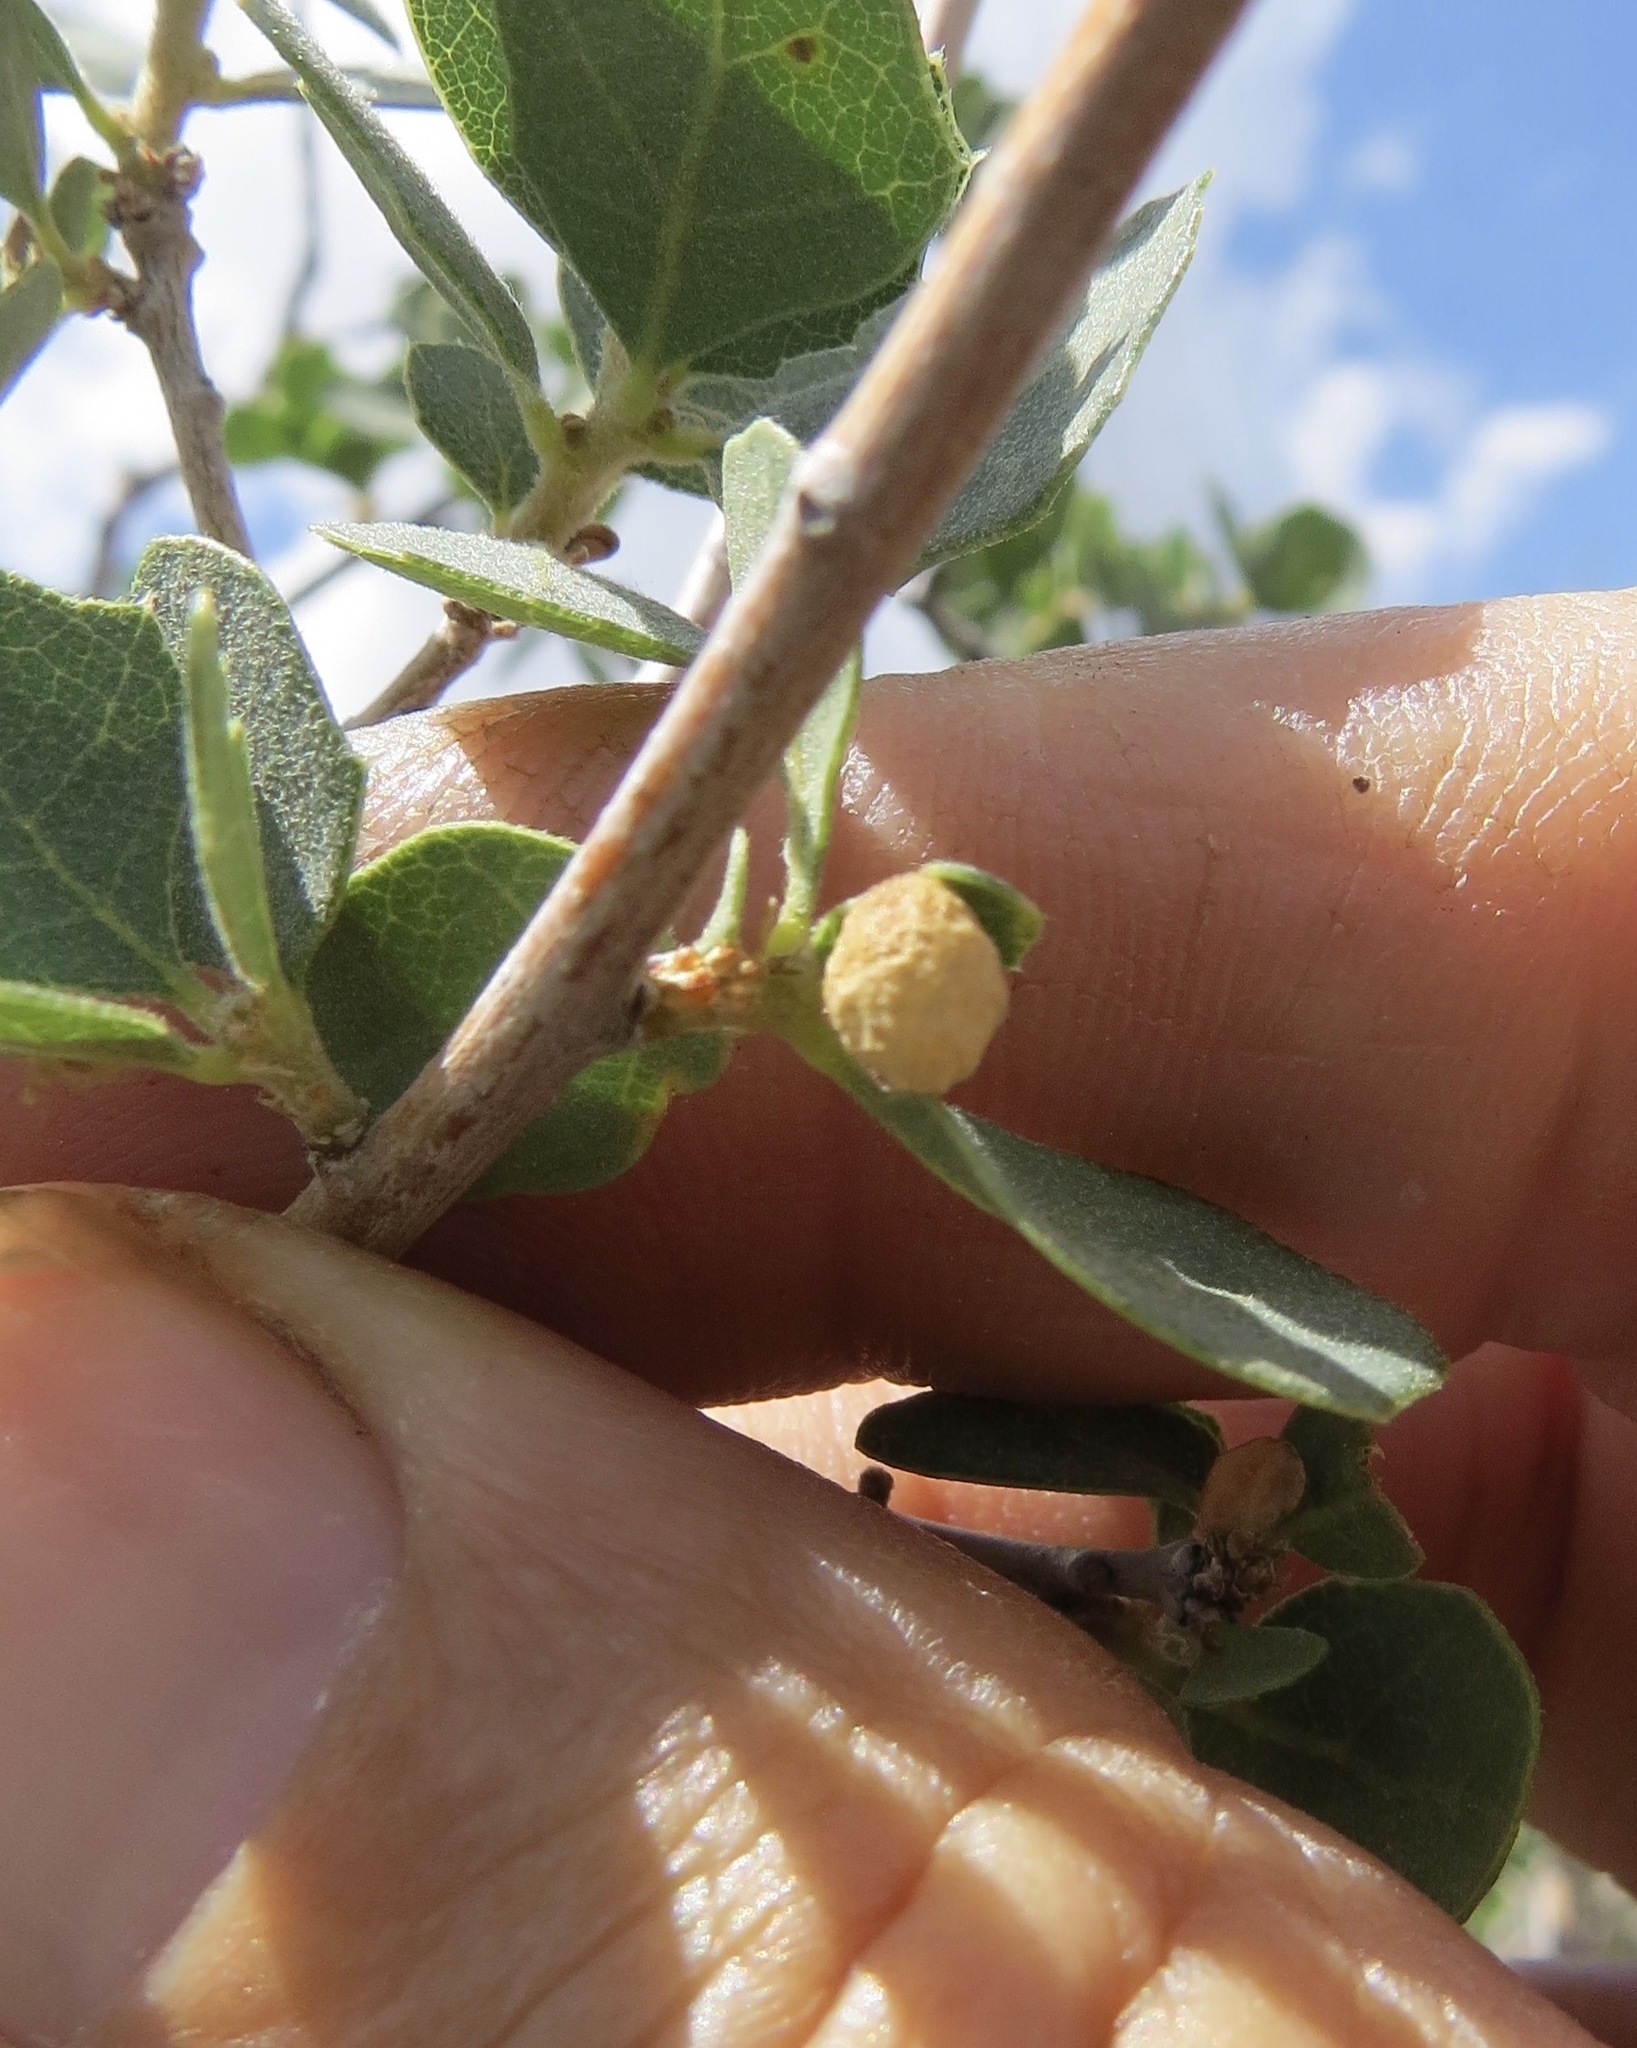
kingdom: Animalia
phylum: Arthropoda
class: Insecta
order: Hymenoptera
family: Cynipidae
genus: Andricus
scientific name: Andricus
